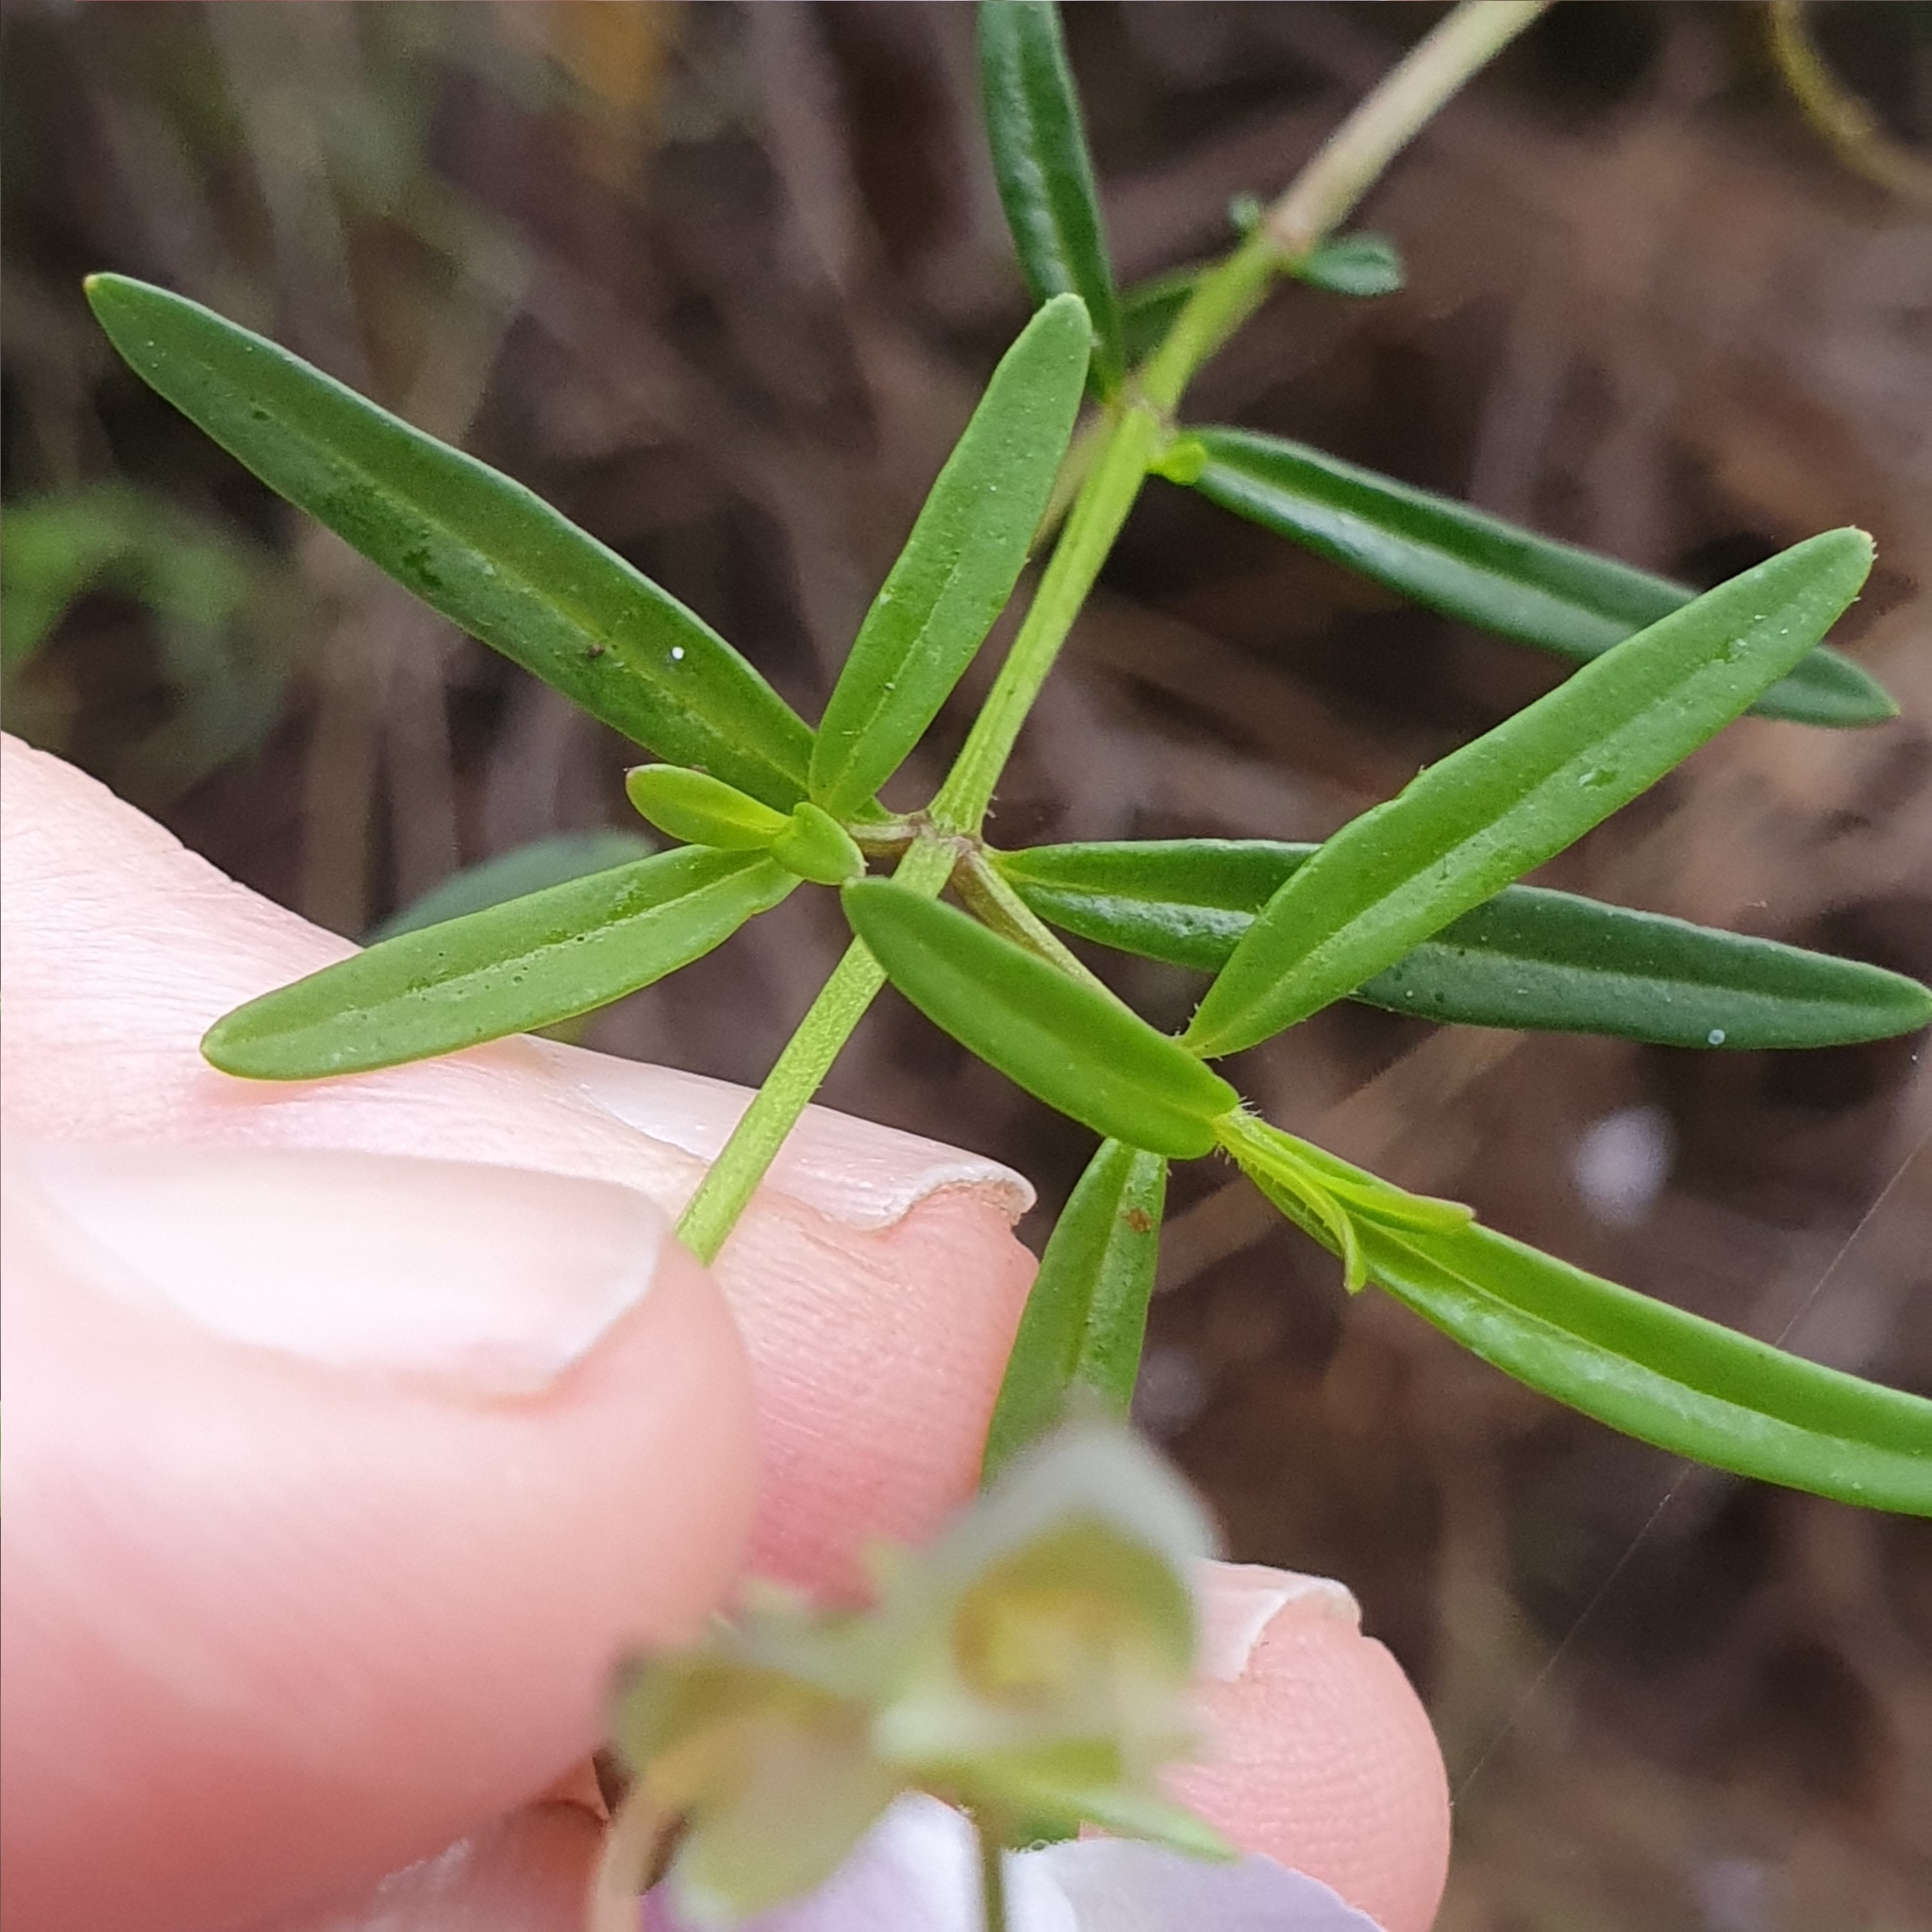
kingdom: Plantae
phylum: Tracheophyta
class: Magnoliopsida
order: Lamiales
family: Lamiaceae
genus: Prostanthera
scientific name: Prostanthera linearis
